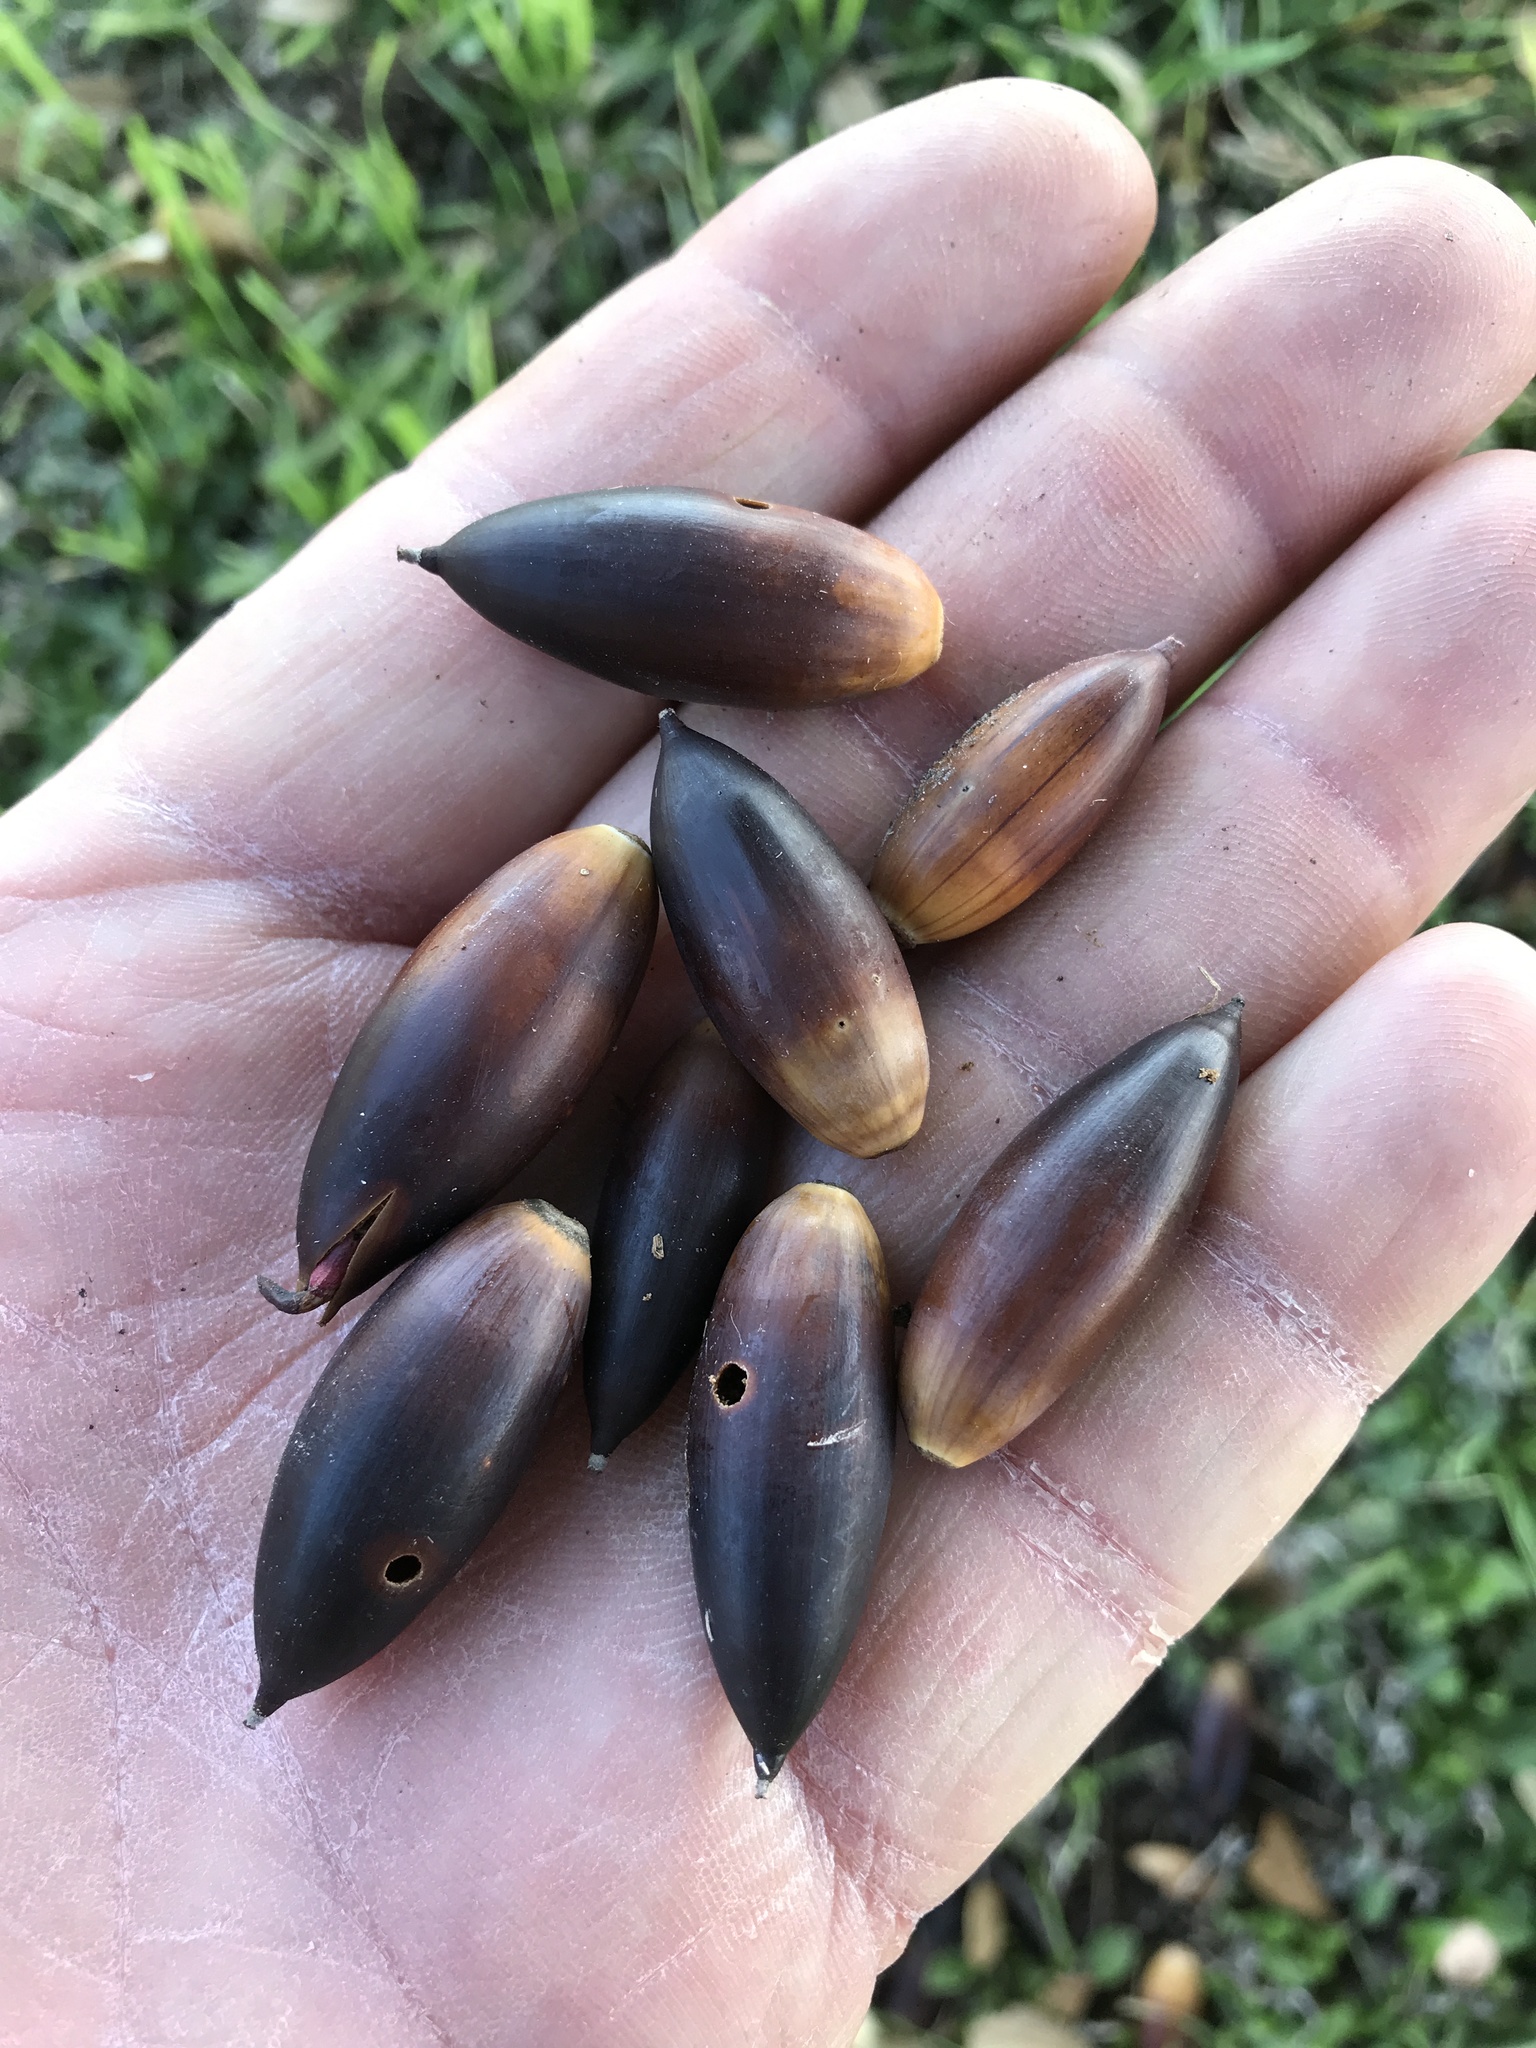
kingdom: Plantae
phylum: Tracheophyta
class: Magnoliopsida
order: Fagales
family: Fagaceae
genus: Quercus
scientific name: Quercus fusiformis
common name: Texas live oak
